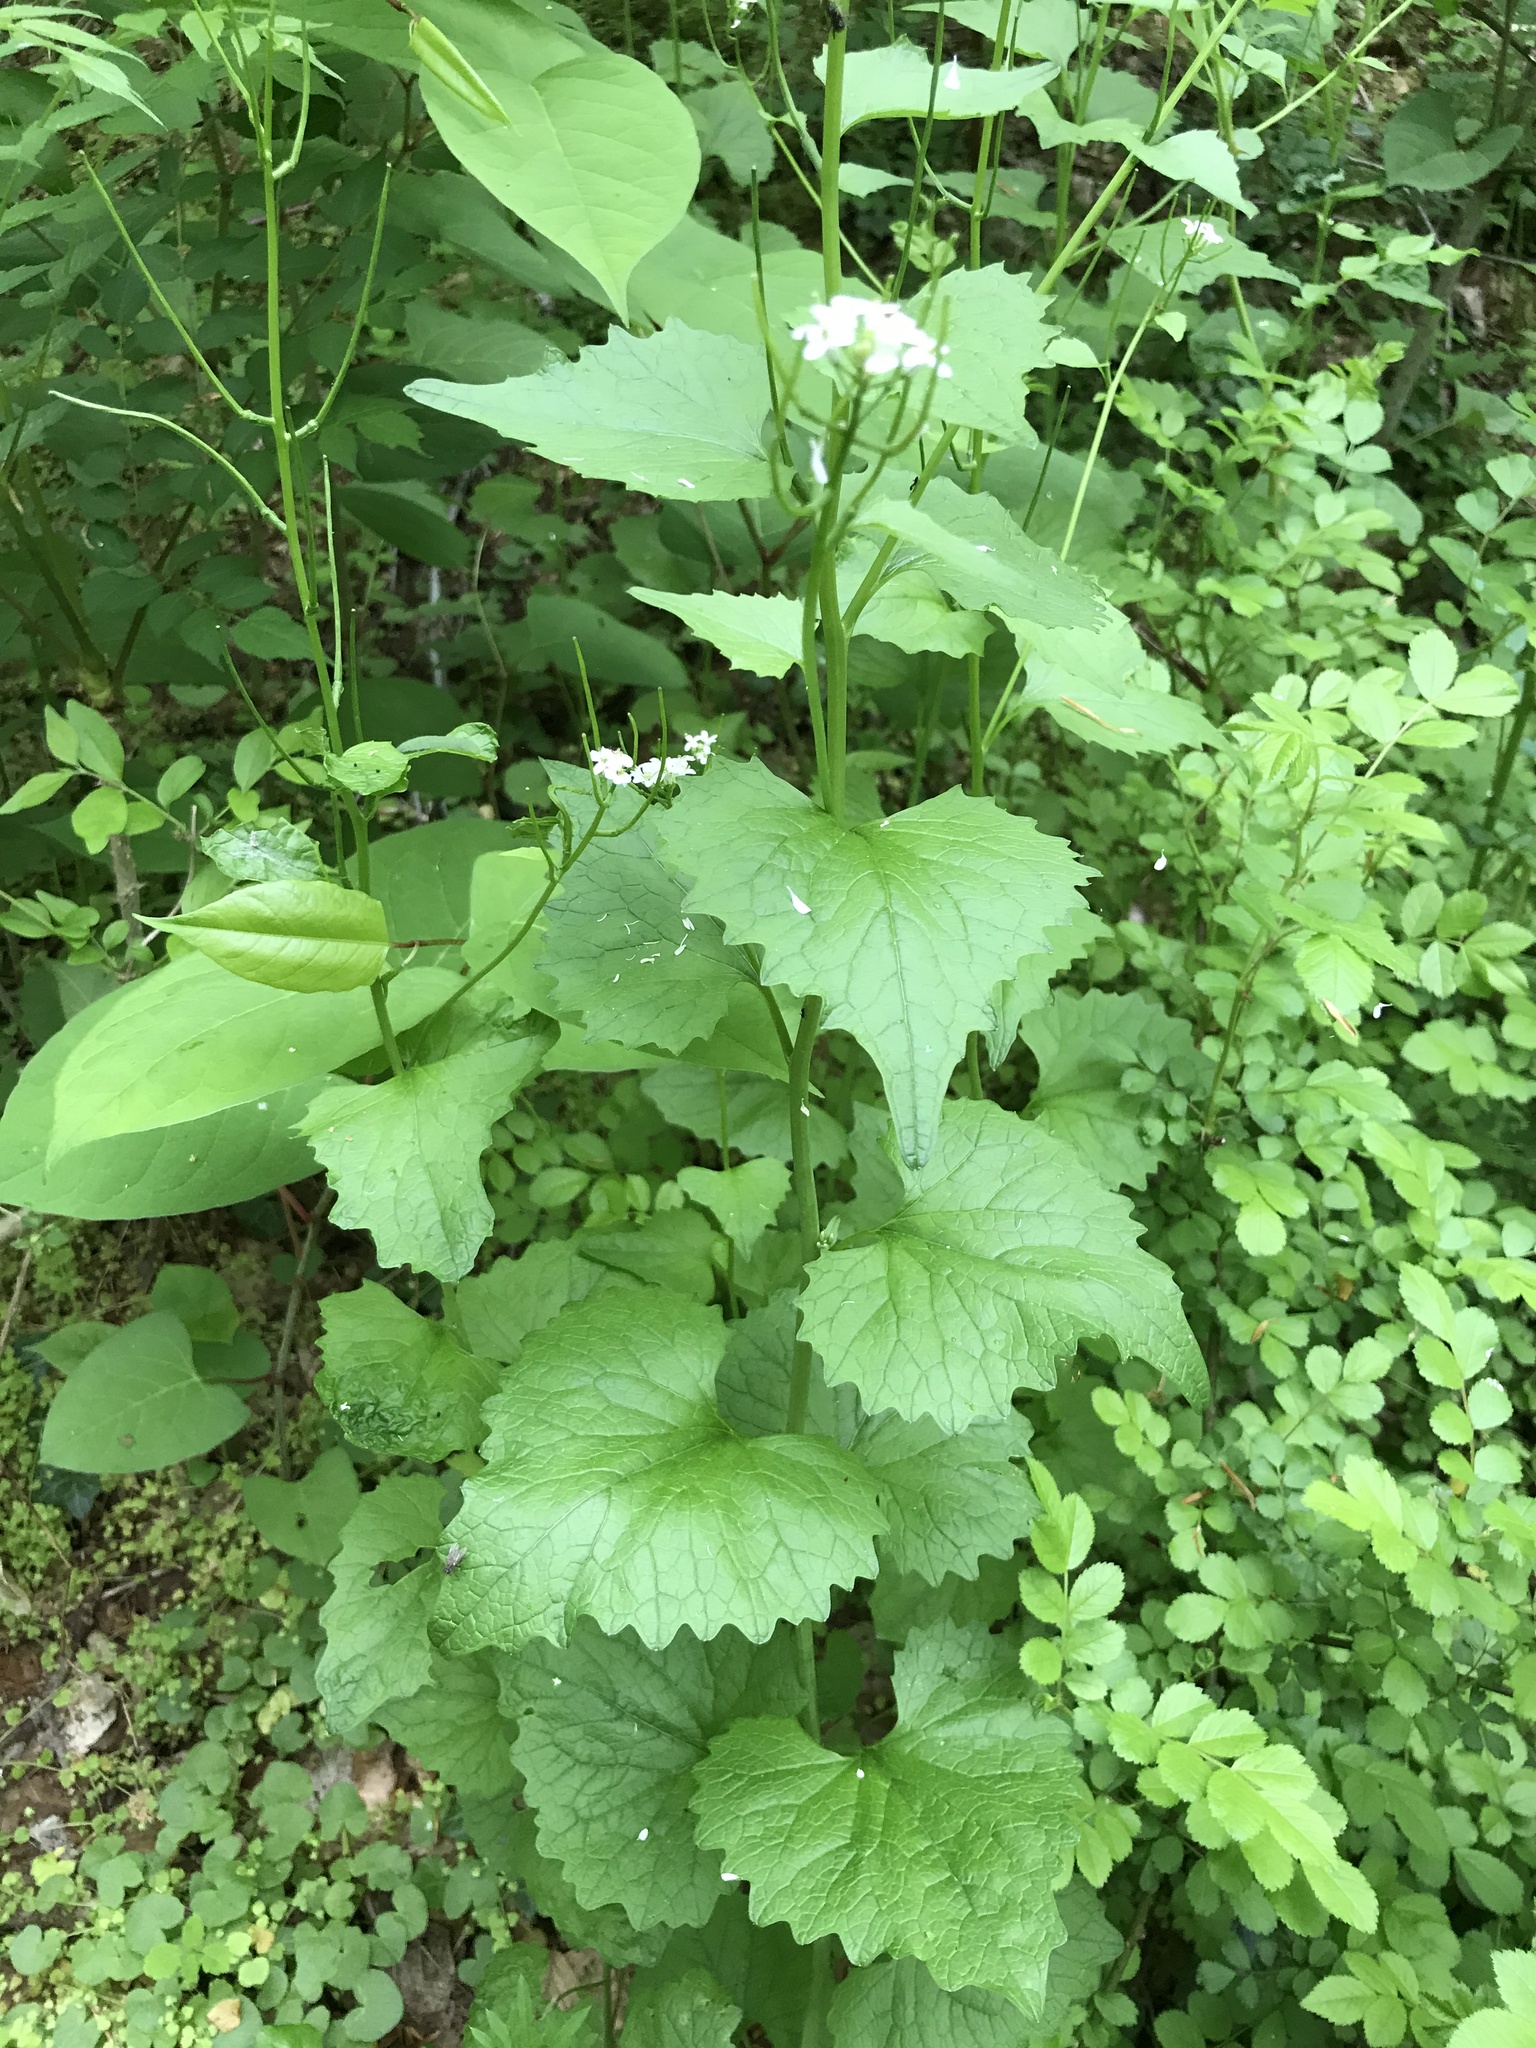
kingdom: Plantae
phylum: Tracheophyta
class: Magnoliopsida
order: Brassicales
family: Brassicaceae
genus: Alliaria
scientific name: Alliaria petiolata
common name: Garlic mustard
